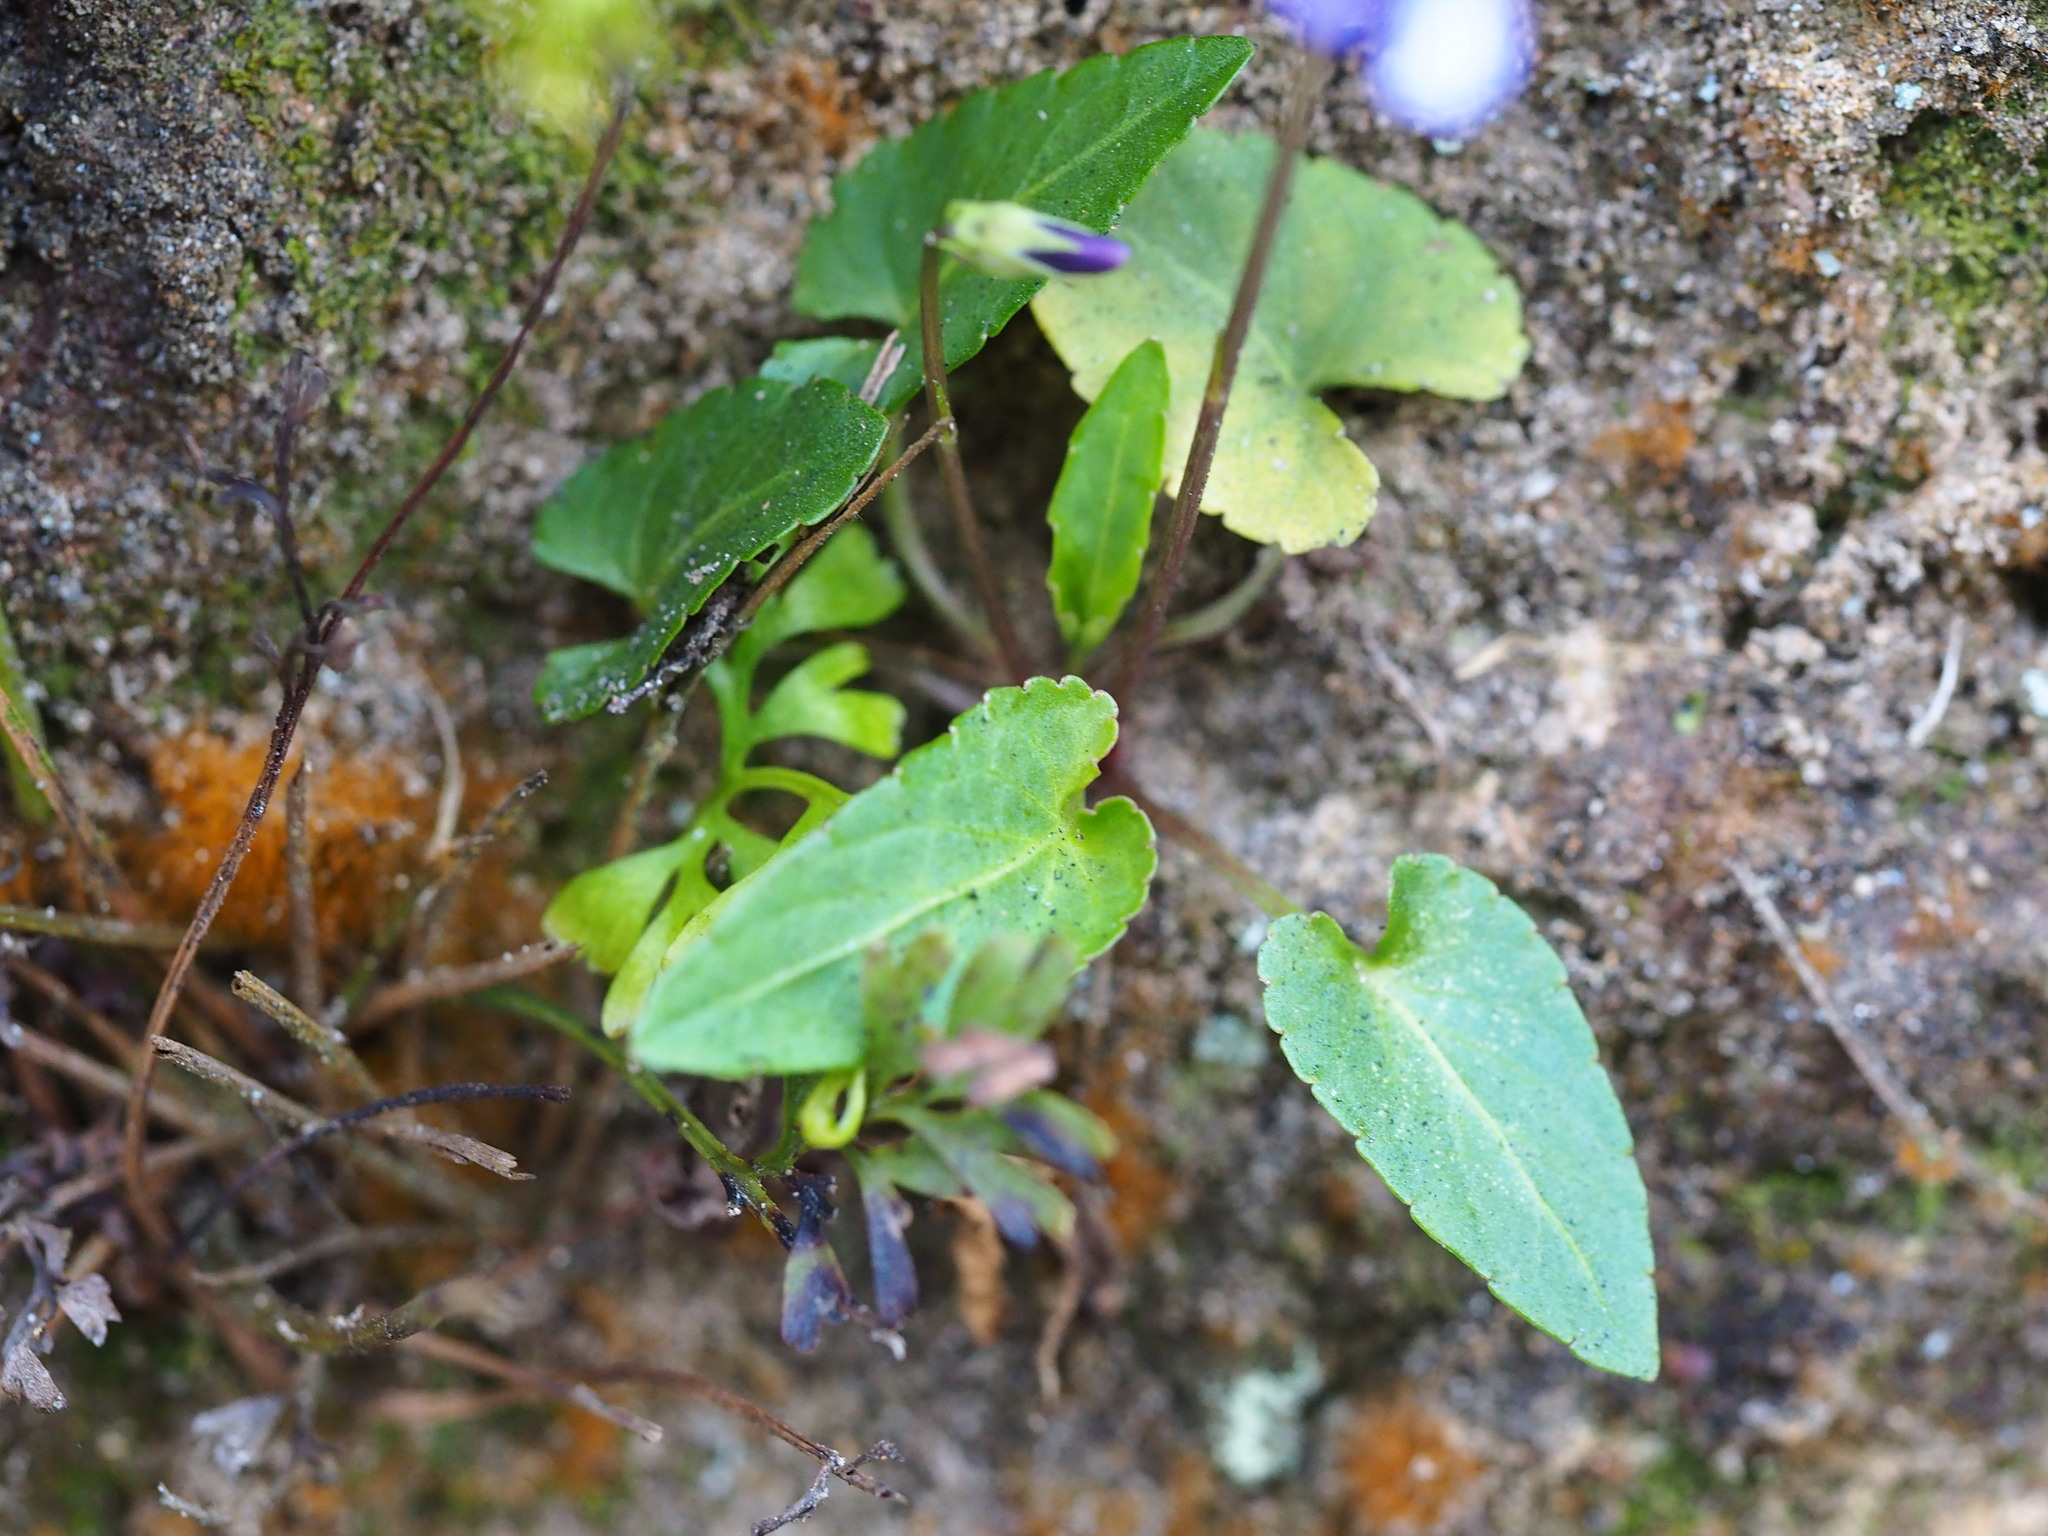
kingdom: Plantae
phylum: Tracheophyta
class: Magnoliopsida
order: Malpighiales
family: Violaceae
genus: Viola
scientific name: Viola inconspicua
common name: Long sepal violet
